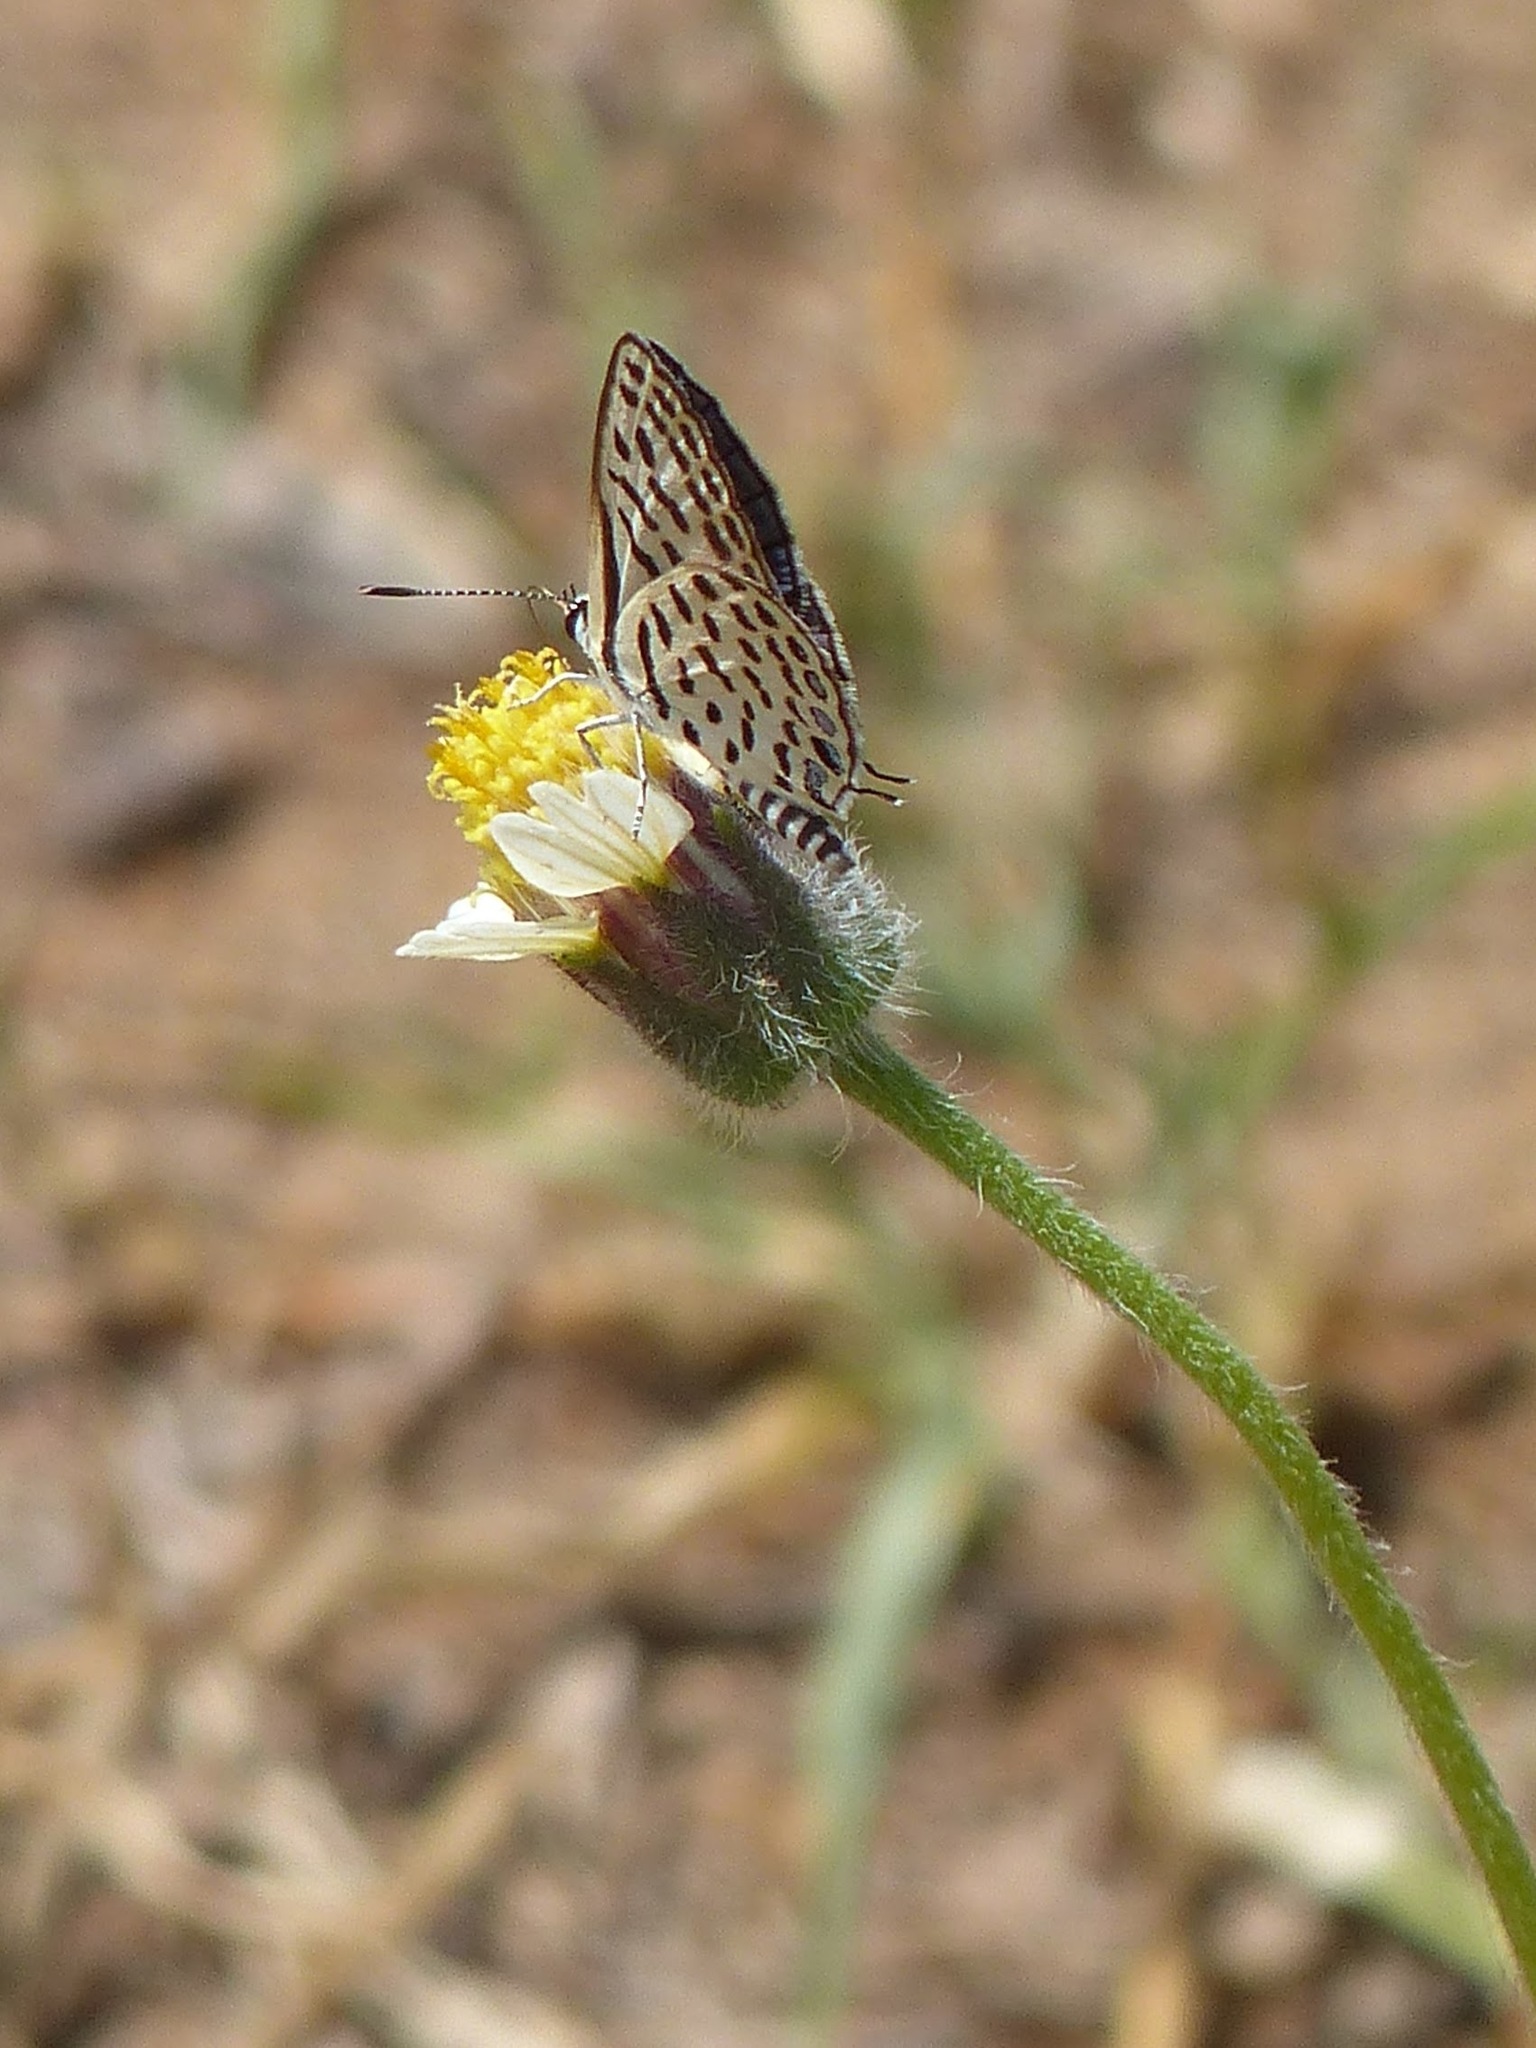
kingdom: Plantae
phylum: Tracheophyta
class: Magnoliopsida
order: Asterales
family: Asteraceae
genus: Tridax
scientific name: Tridax procumbens
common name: Coatbuttons
